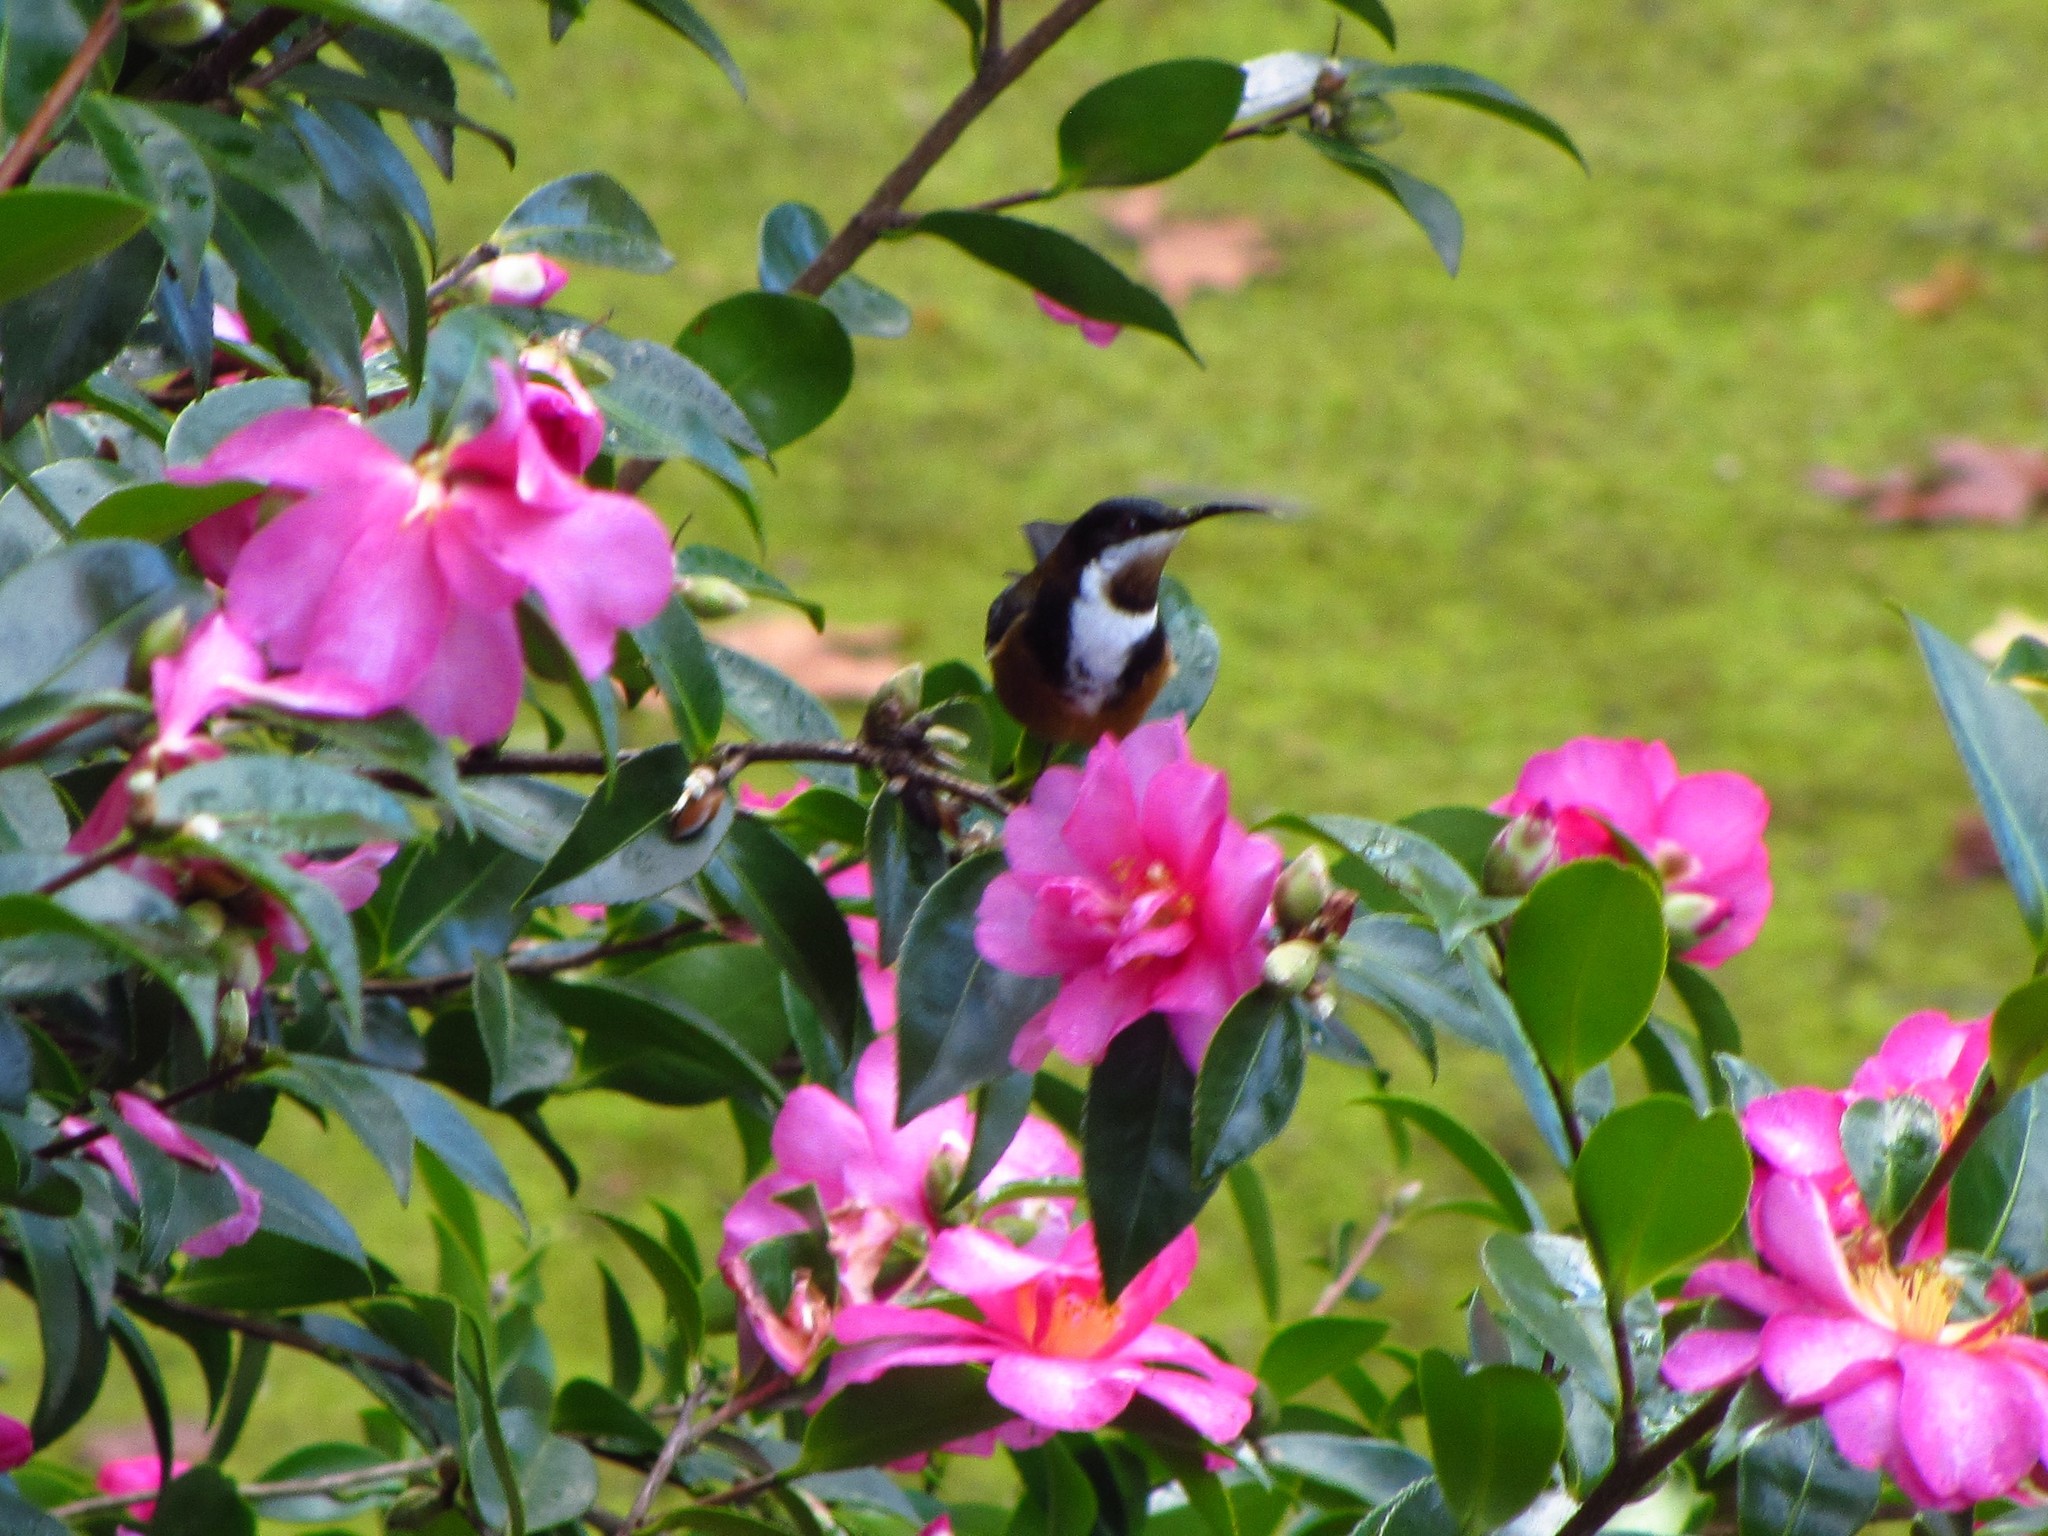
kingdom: Animalia
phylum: Chordata
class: Aves
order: Passeriformes
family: Meliphagidae
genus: Acanthorhynchus
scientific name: Acanthorhynchus tenuirostris
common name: Eastern spinebill
